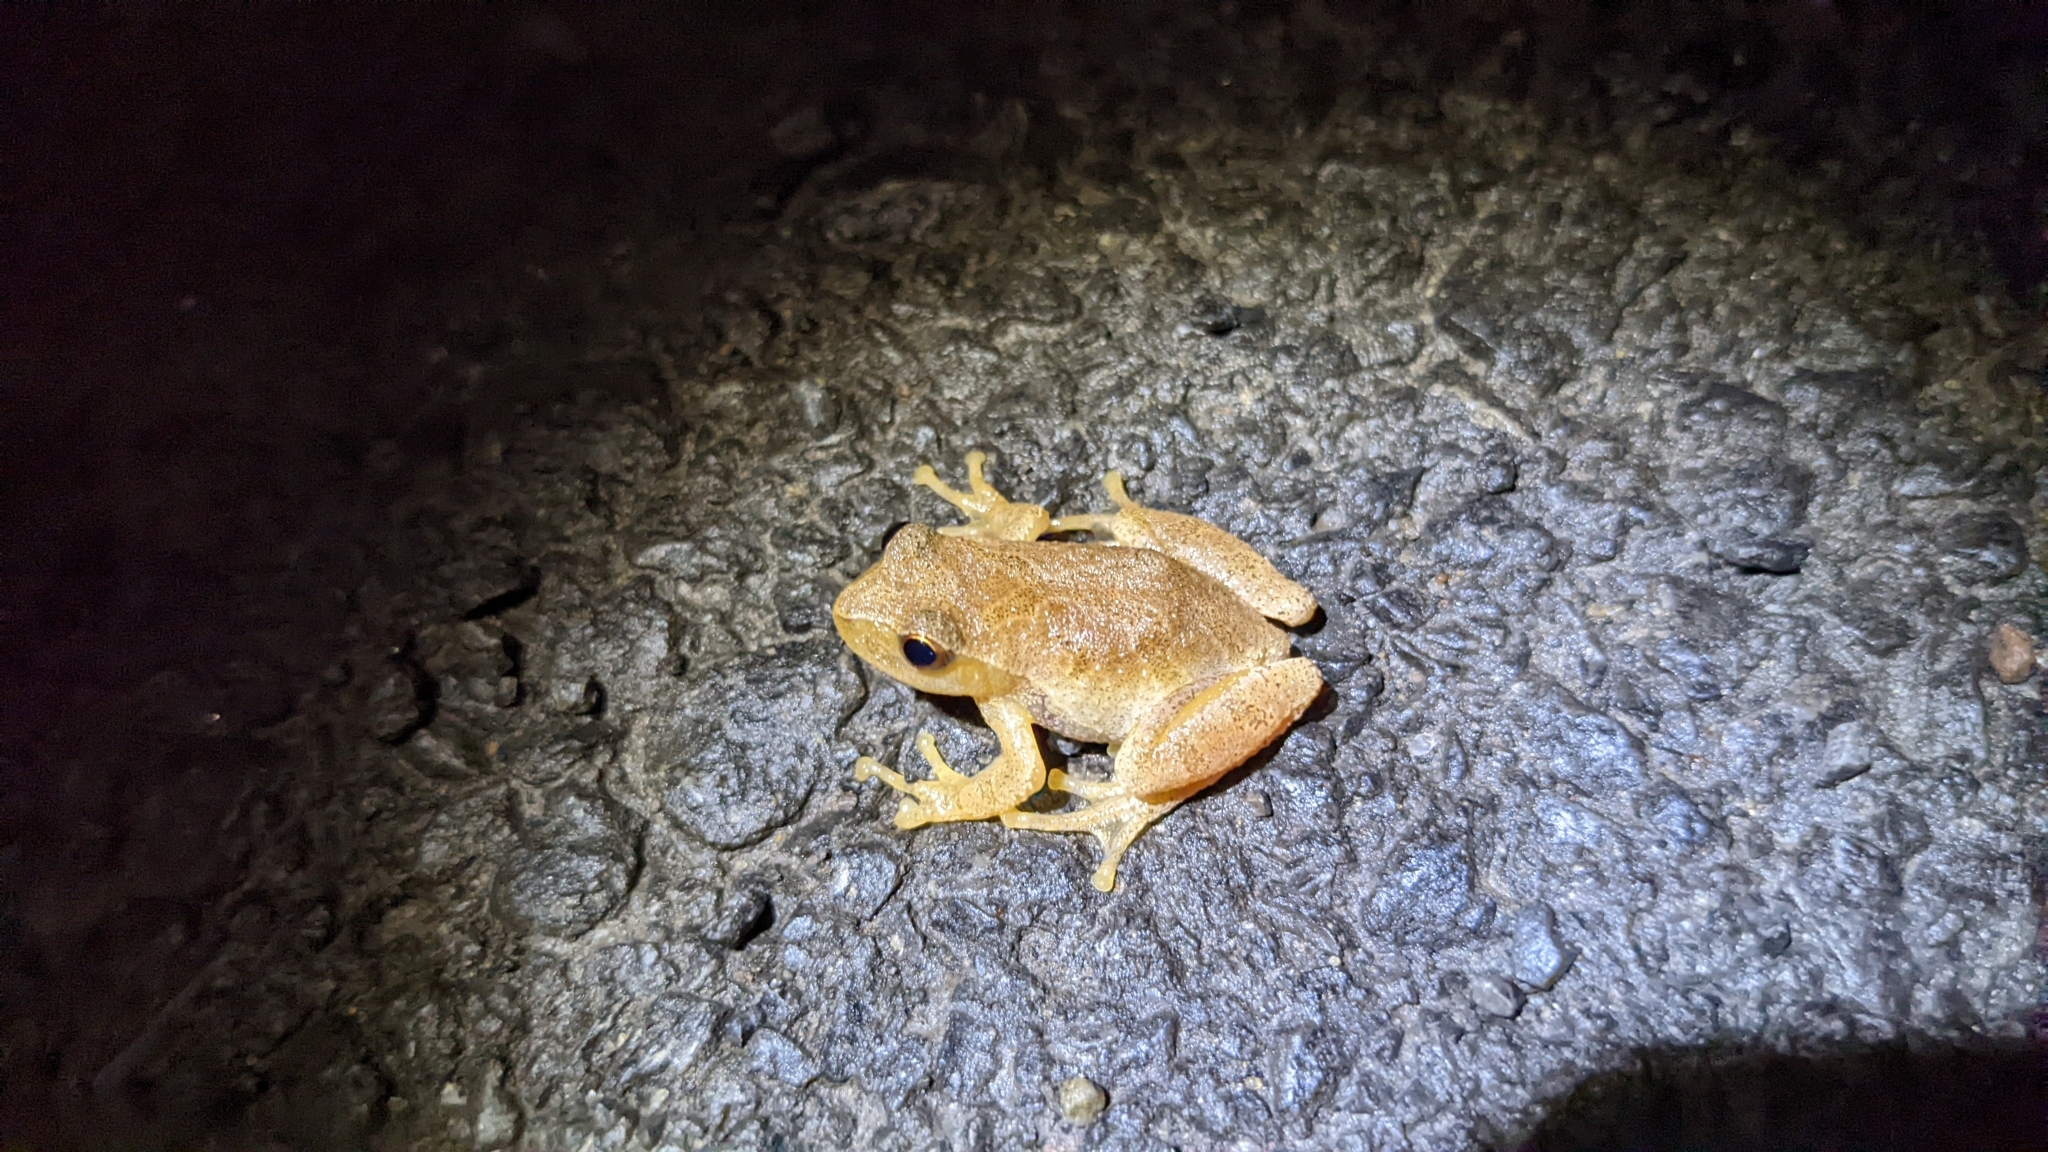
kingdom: Animalia
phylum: Chordata
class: Amphibia
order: Anura
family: Hylidae
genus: Pseudacris
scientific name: Pseudacris crucifer
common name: Spring peeper
